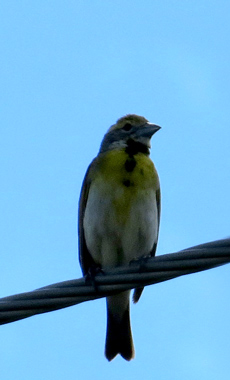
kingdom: Animalia
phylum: Chordata
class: Aves
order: Passeriformes
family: Cardinalidae
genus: Spiza
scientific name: Spiza americana
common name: Dickcissel
